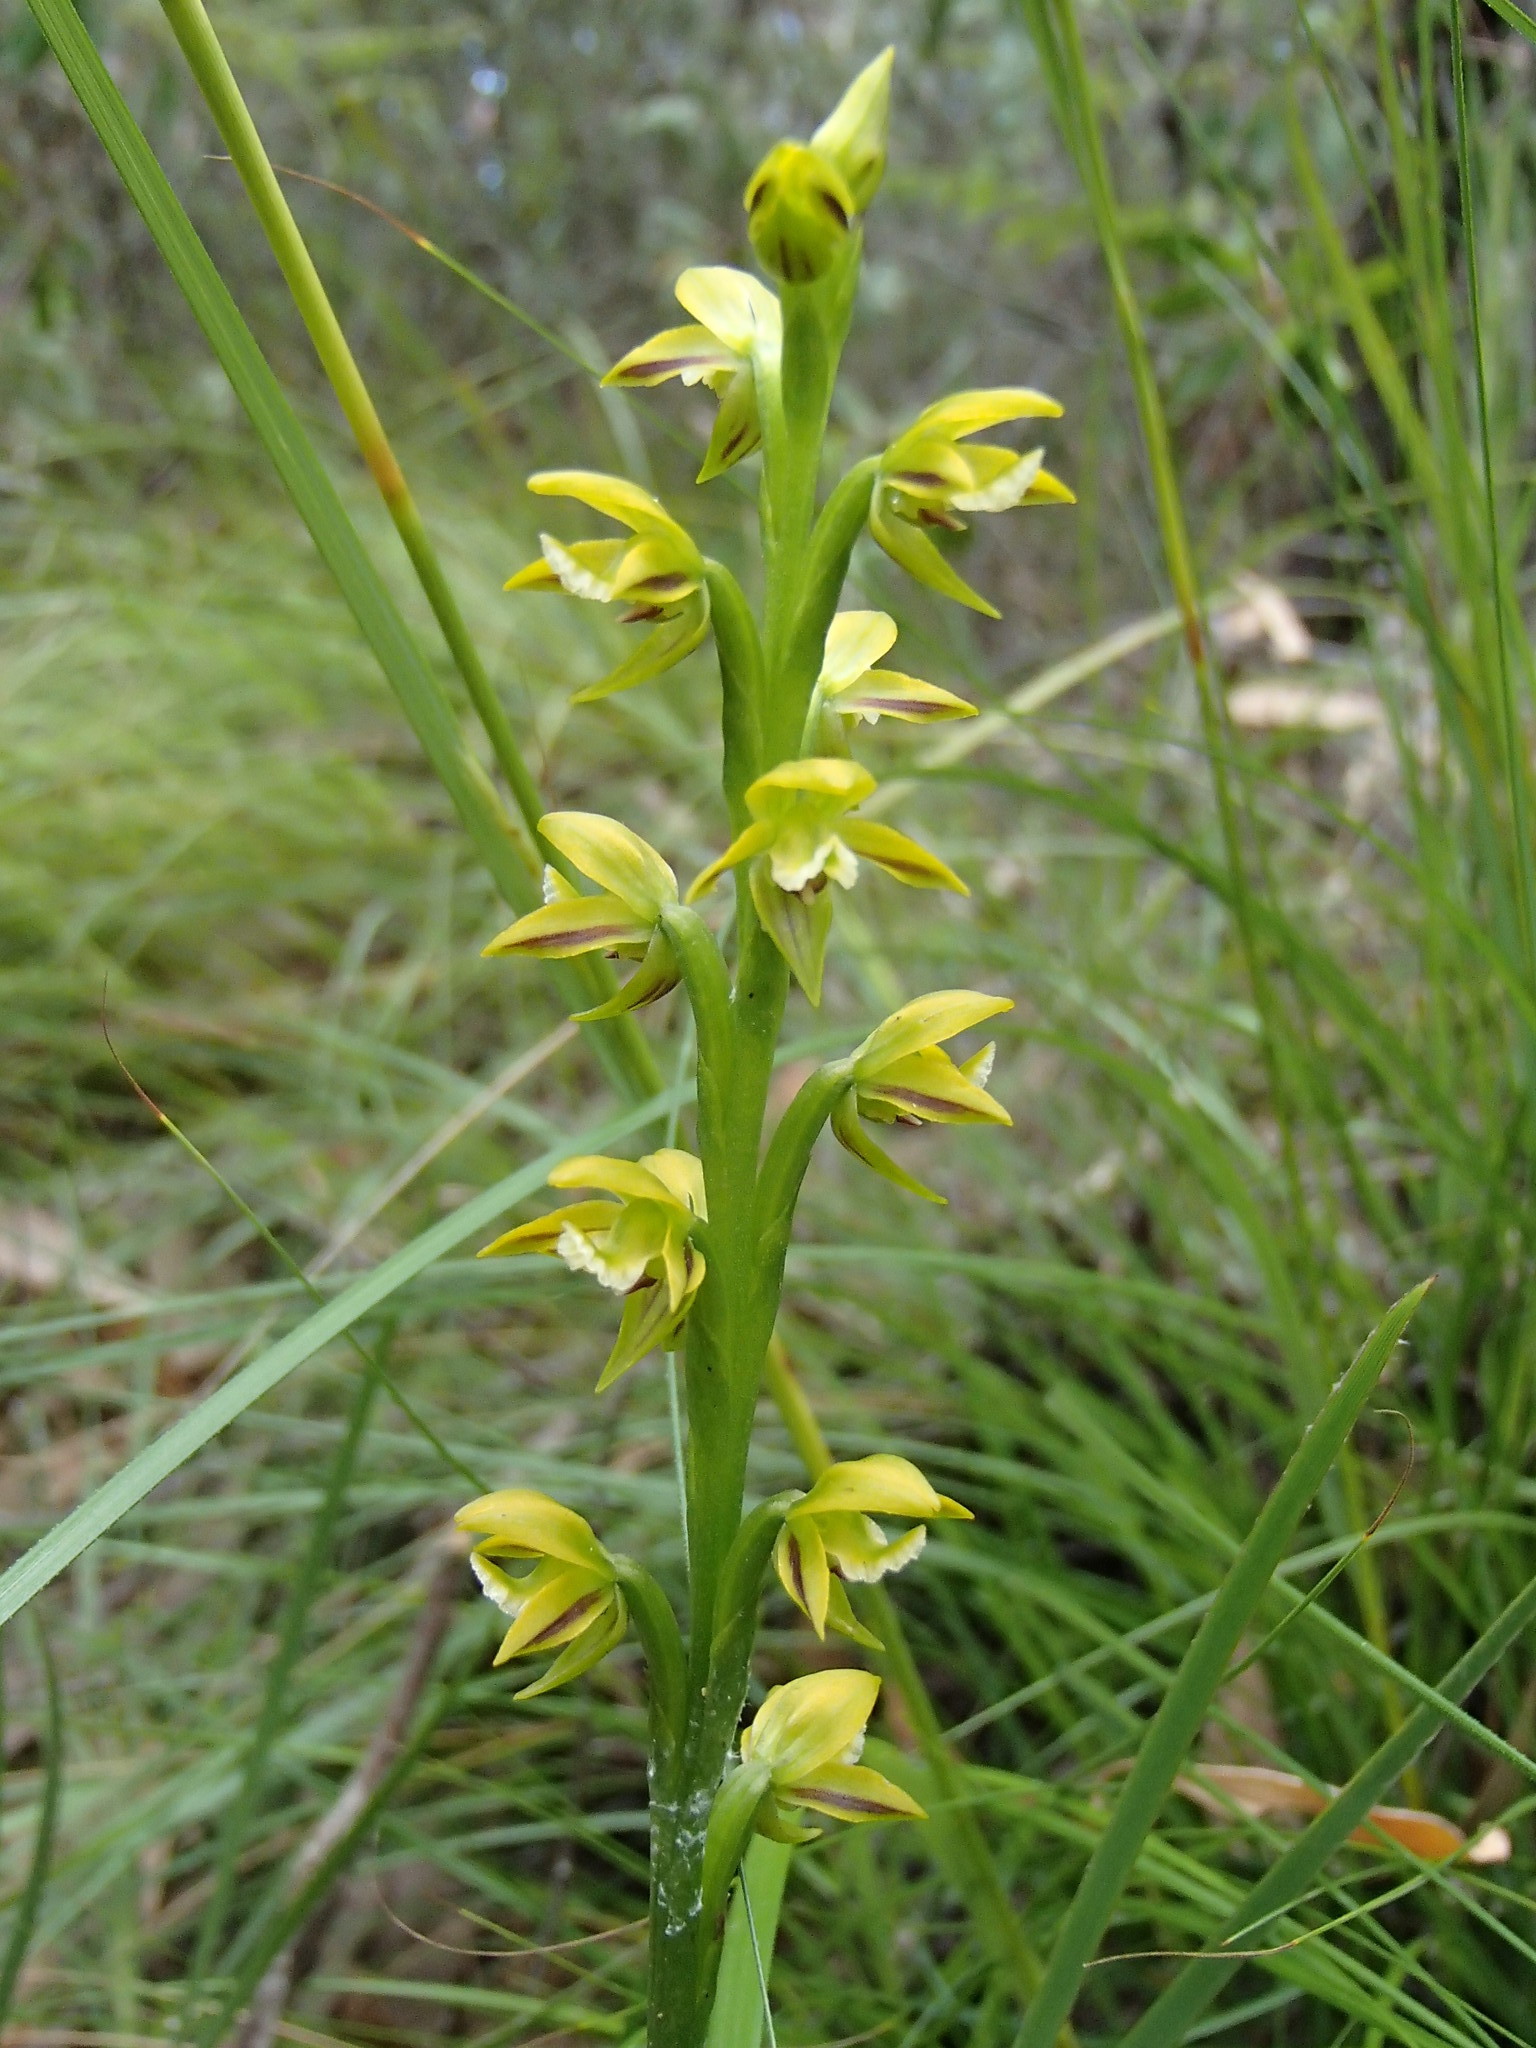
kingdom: Plantae
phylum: Tracheophyta
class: Liliopsida
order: Asparagales
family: Orchidaceae
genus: Prasophyllum
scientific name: Prasophyllum flavum
